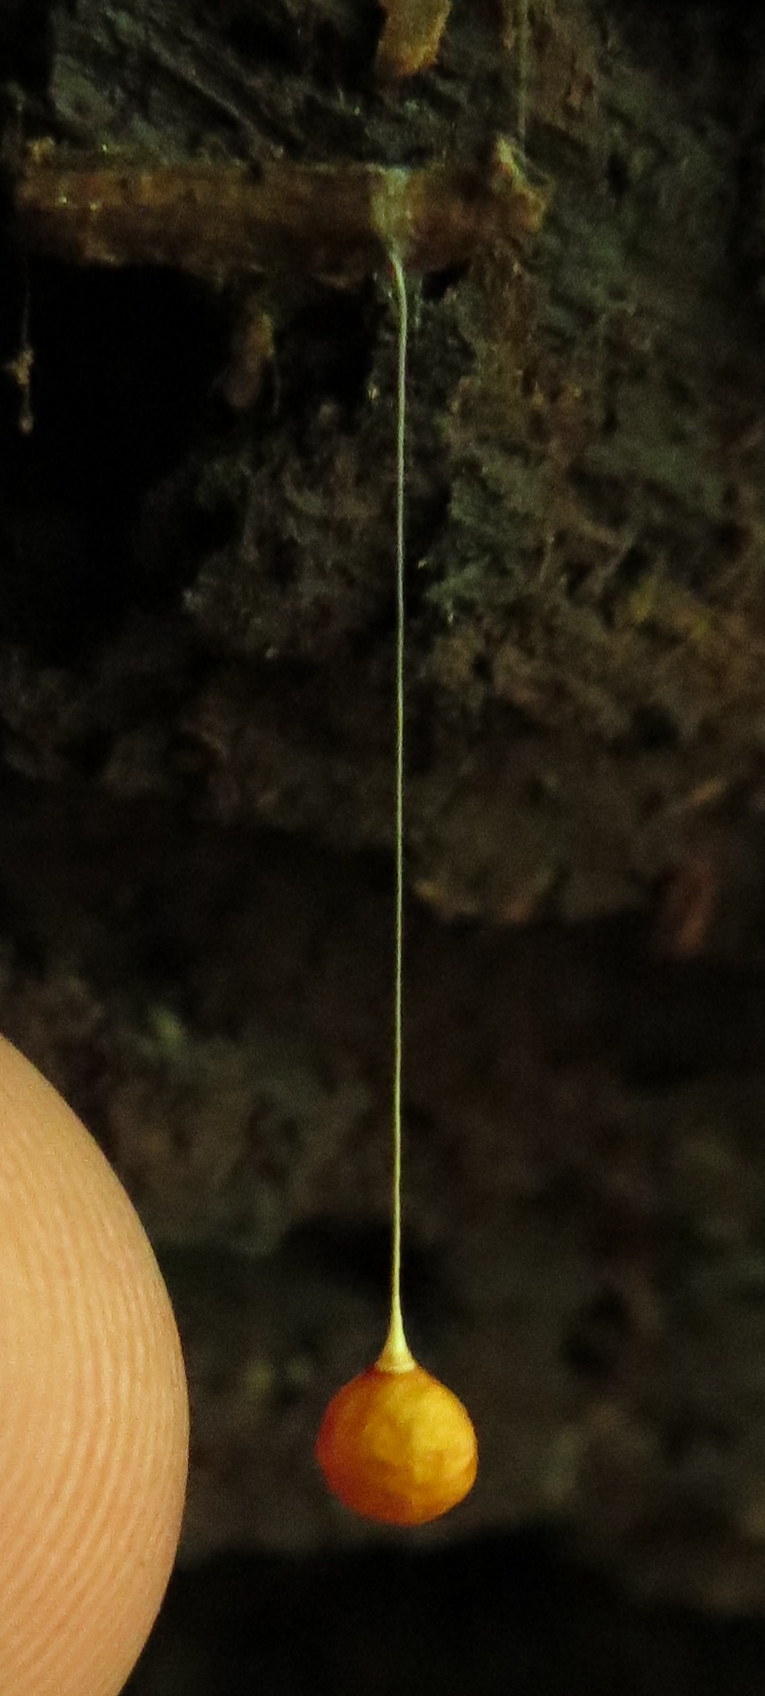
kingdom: Animalia
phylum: Arthropoda
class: Arachnida
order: Araneae
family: Theridiosomatidae
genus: Theridiosoma
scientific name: Theridiosoma gemmosum
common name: Ray spider
